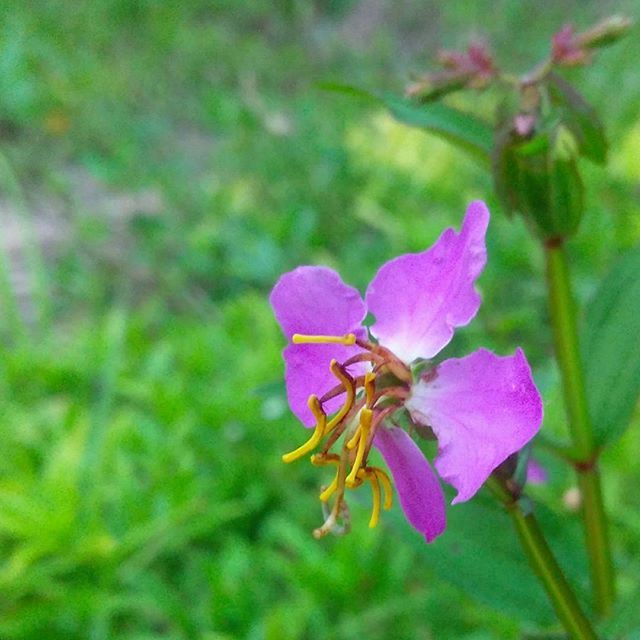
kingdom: Plantae
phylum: Tracheophyta
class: Magnoliopsida
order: Myrtales
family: Melastomataceae
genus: Rhexia
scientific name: Rhexia virginica
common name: Common meadow beauty
